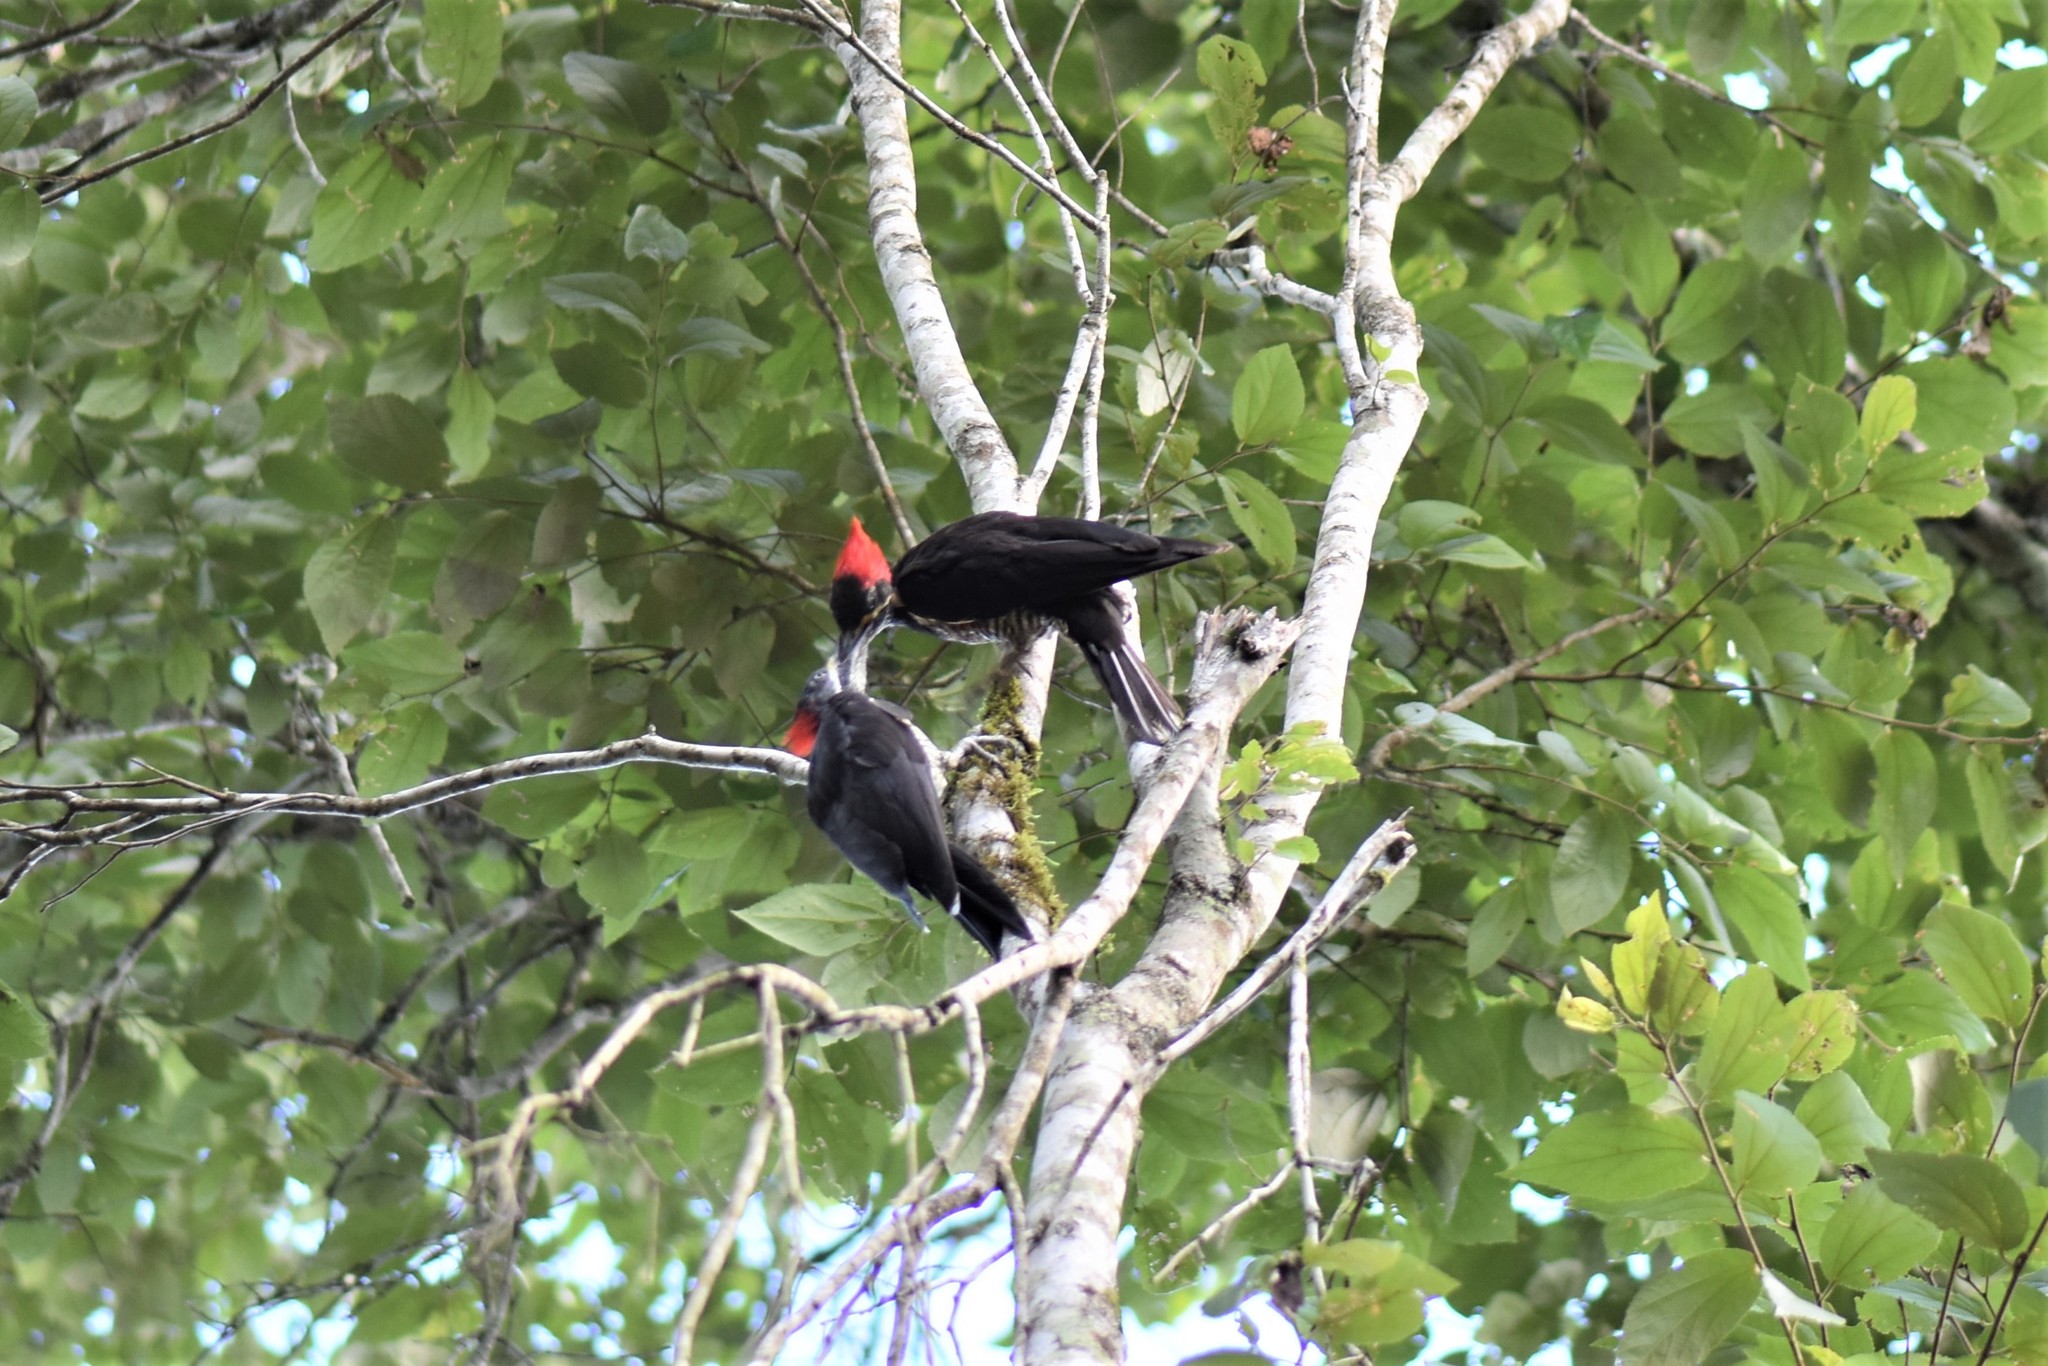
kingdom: Animalia
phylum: Chordata
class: Aves
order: Piciformes
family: Picidae
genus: Dryocopus
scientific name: Dryocopus lineatus
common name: Lineated woodpecker
